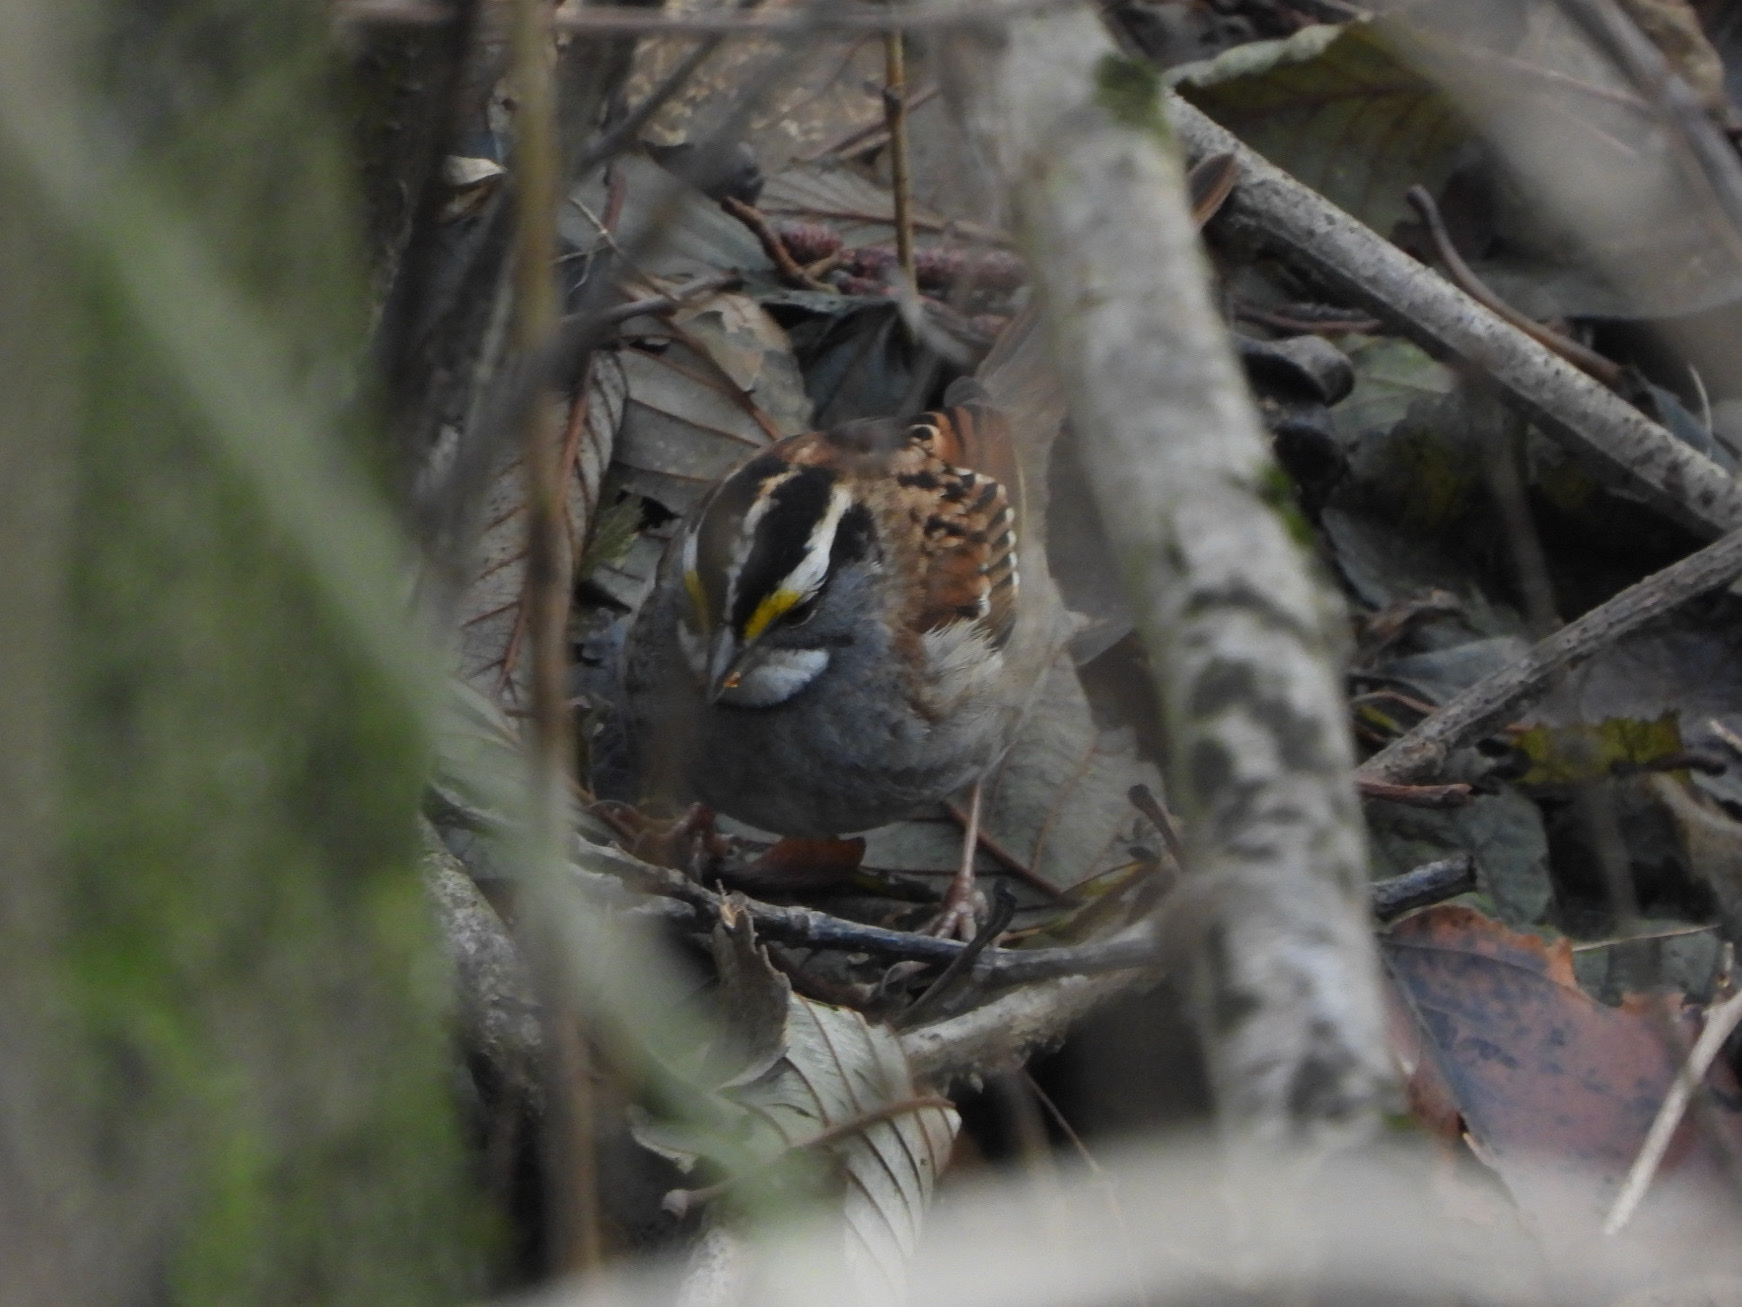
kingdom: Animalia
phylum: Chordata
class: Aves
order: Passeriformes
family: Passerellidae
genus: Zonotrichia
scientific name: Zonotrichia albicollis
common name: White-throated sparrow
